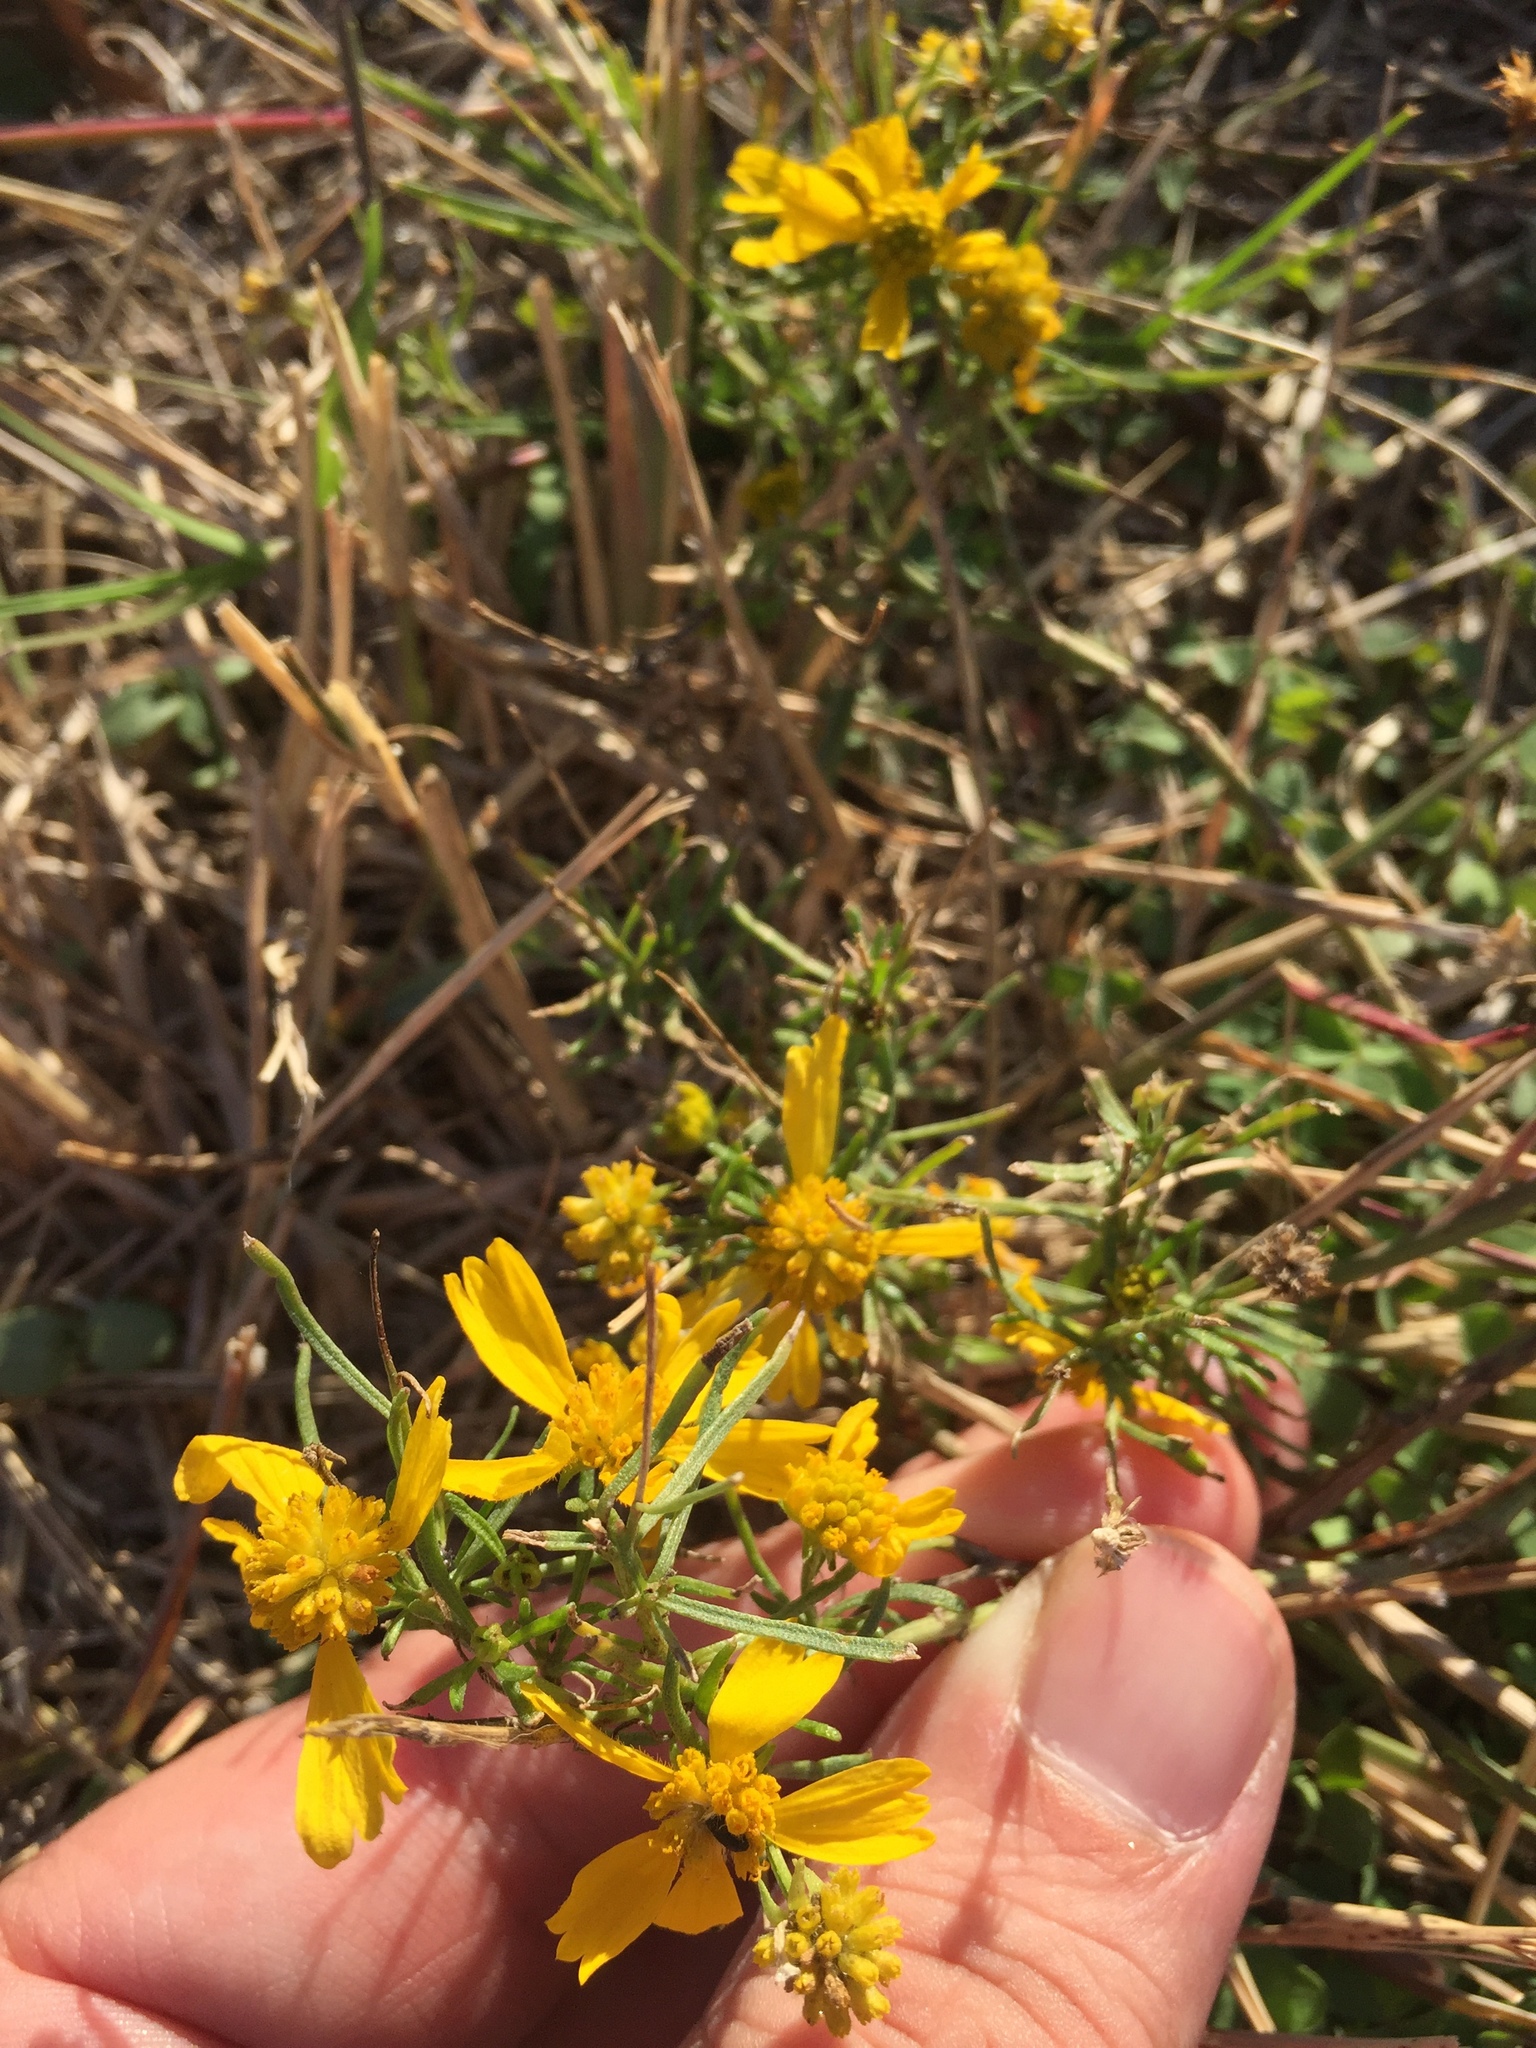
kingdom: Plantae
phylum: Tracheophyta
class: Magnoliopsida
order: Asterales
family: Asteraceae
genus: Helenium
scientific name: Helenium amarum
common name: Bitter sneezeweed
